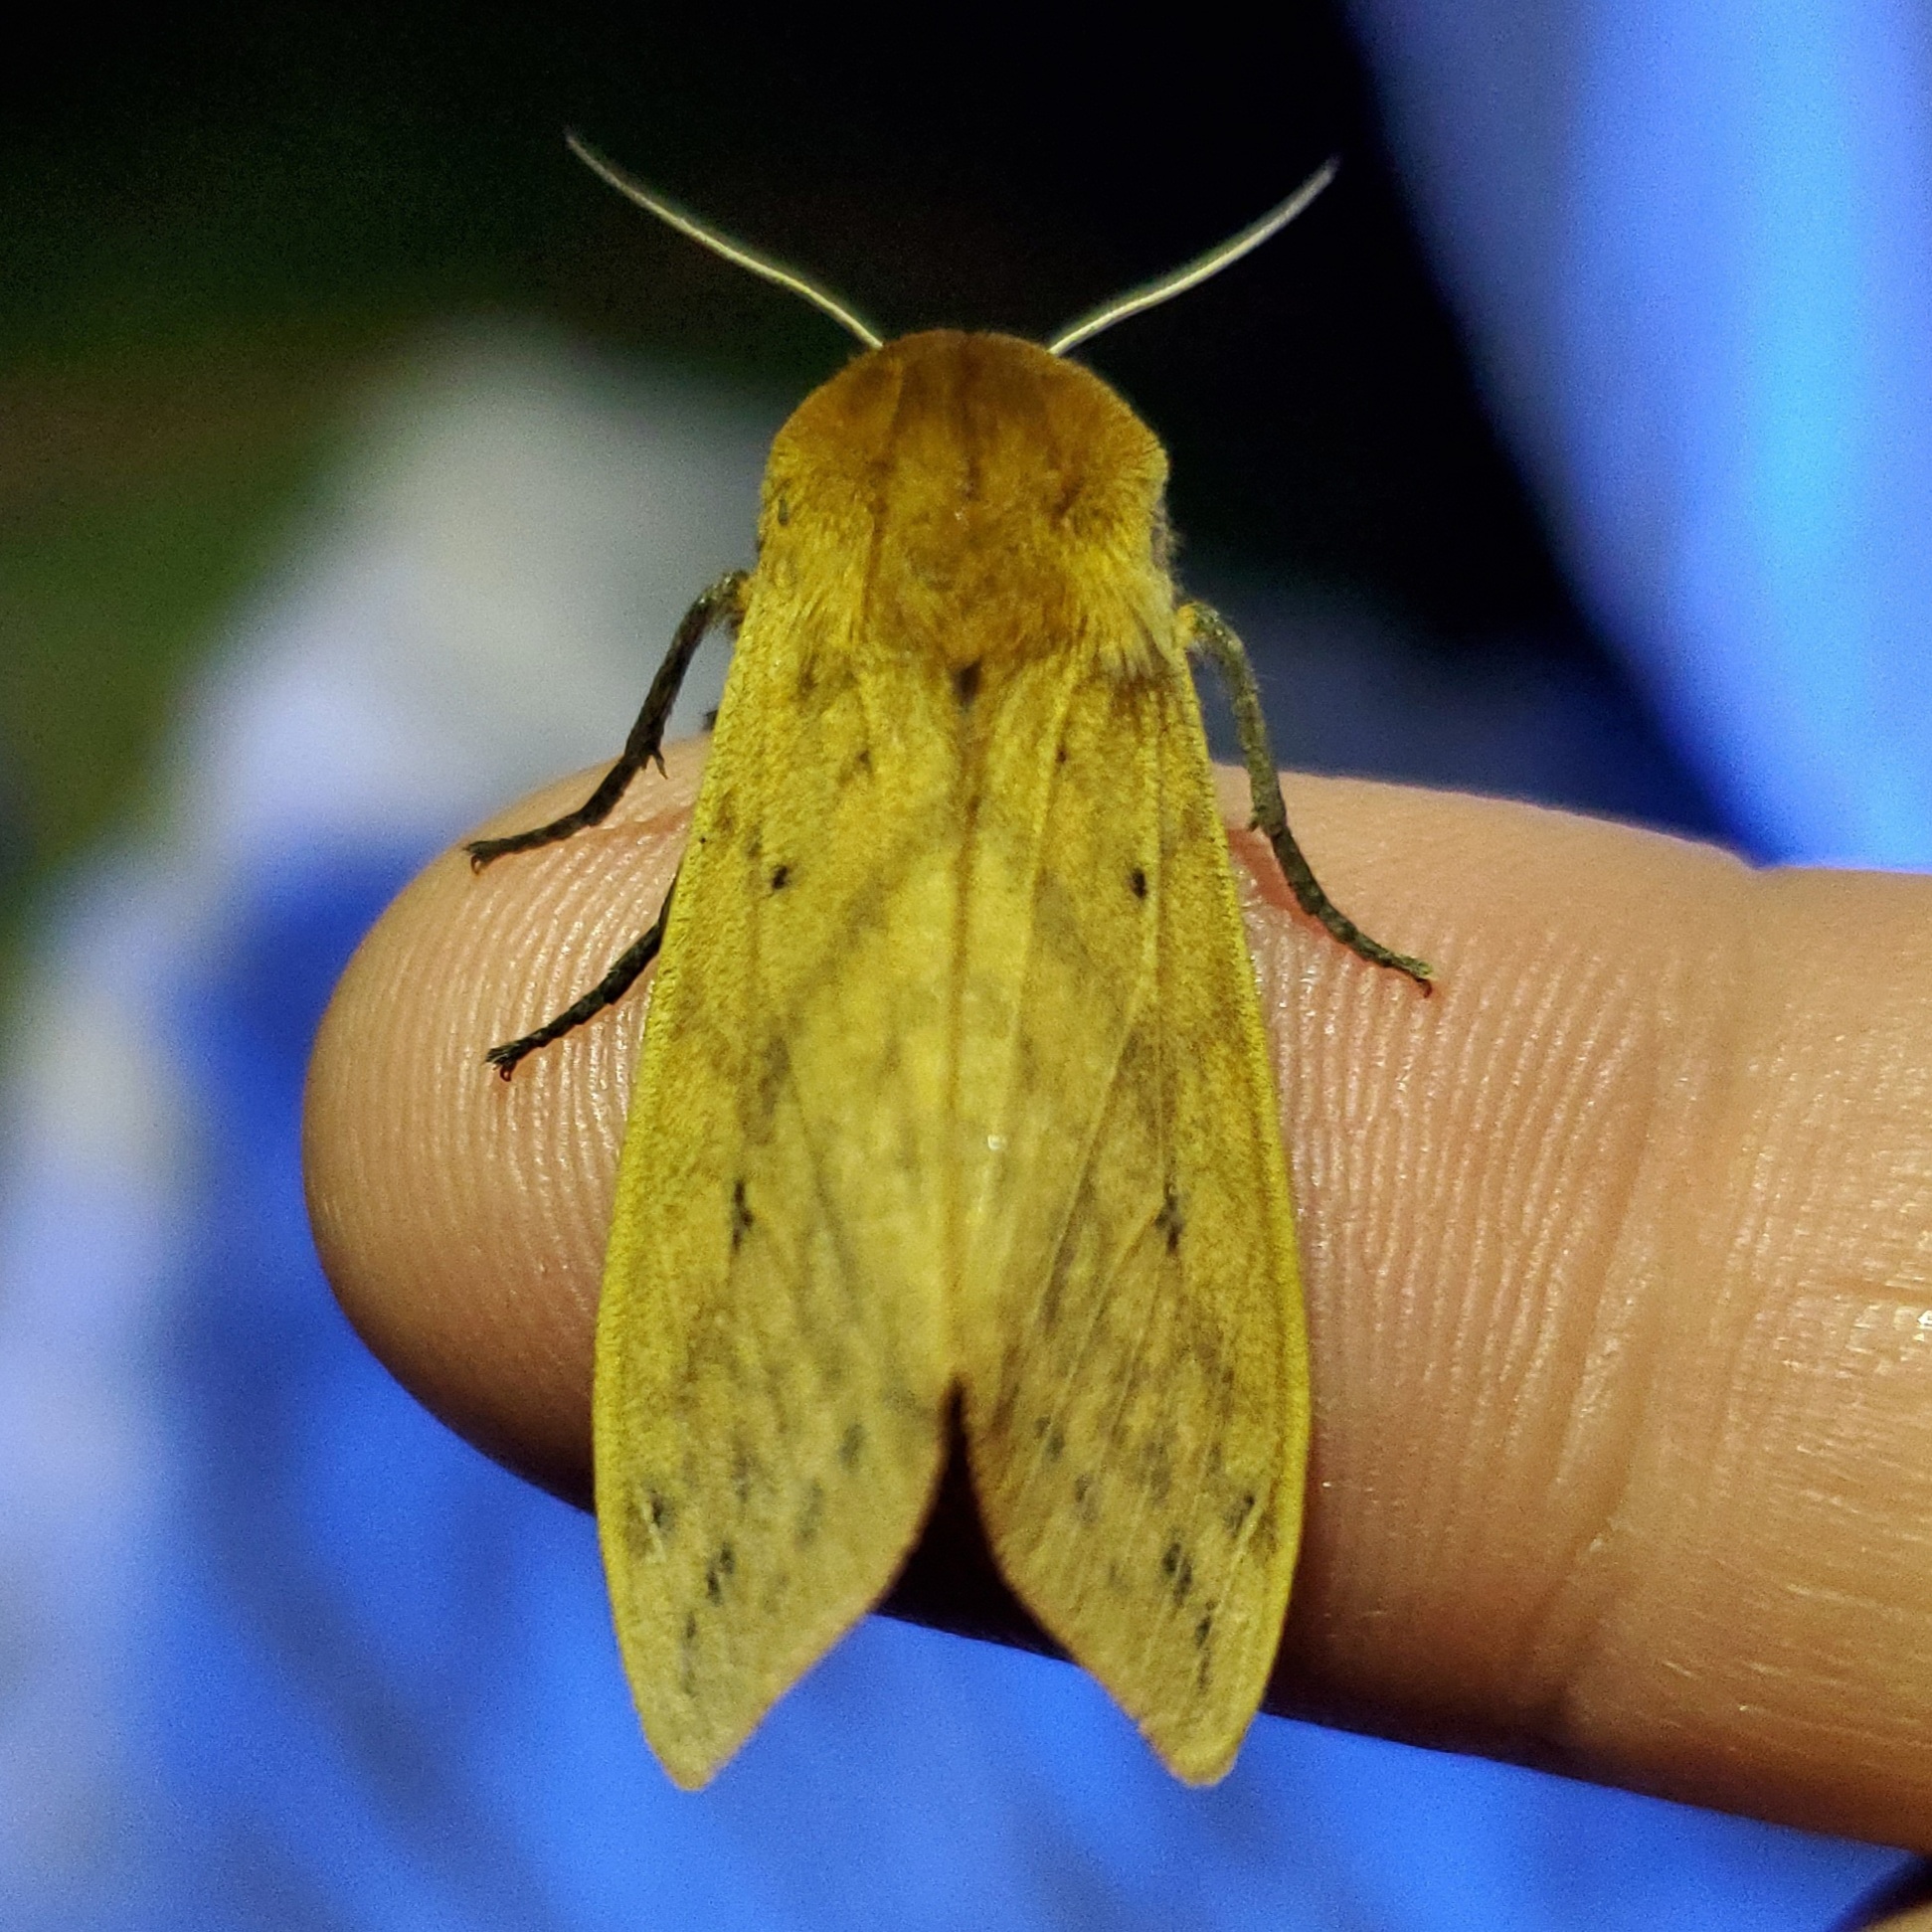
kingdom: Animalia
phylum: Arthropoda
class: Insecta
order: Lepidoptera
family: Erebidae
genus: Pyrrharctia
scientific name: Pyrrharctia isabella
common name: Isabella tiger moth
